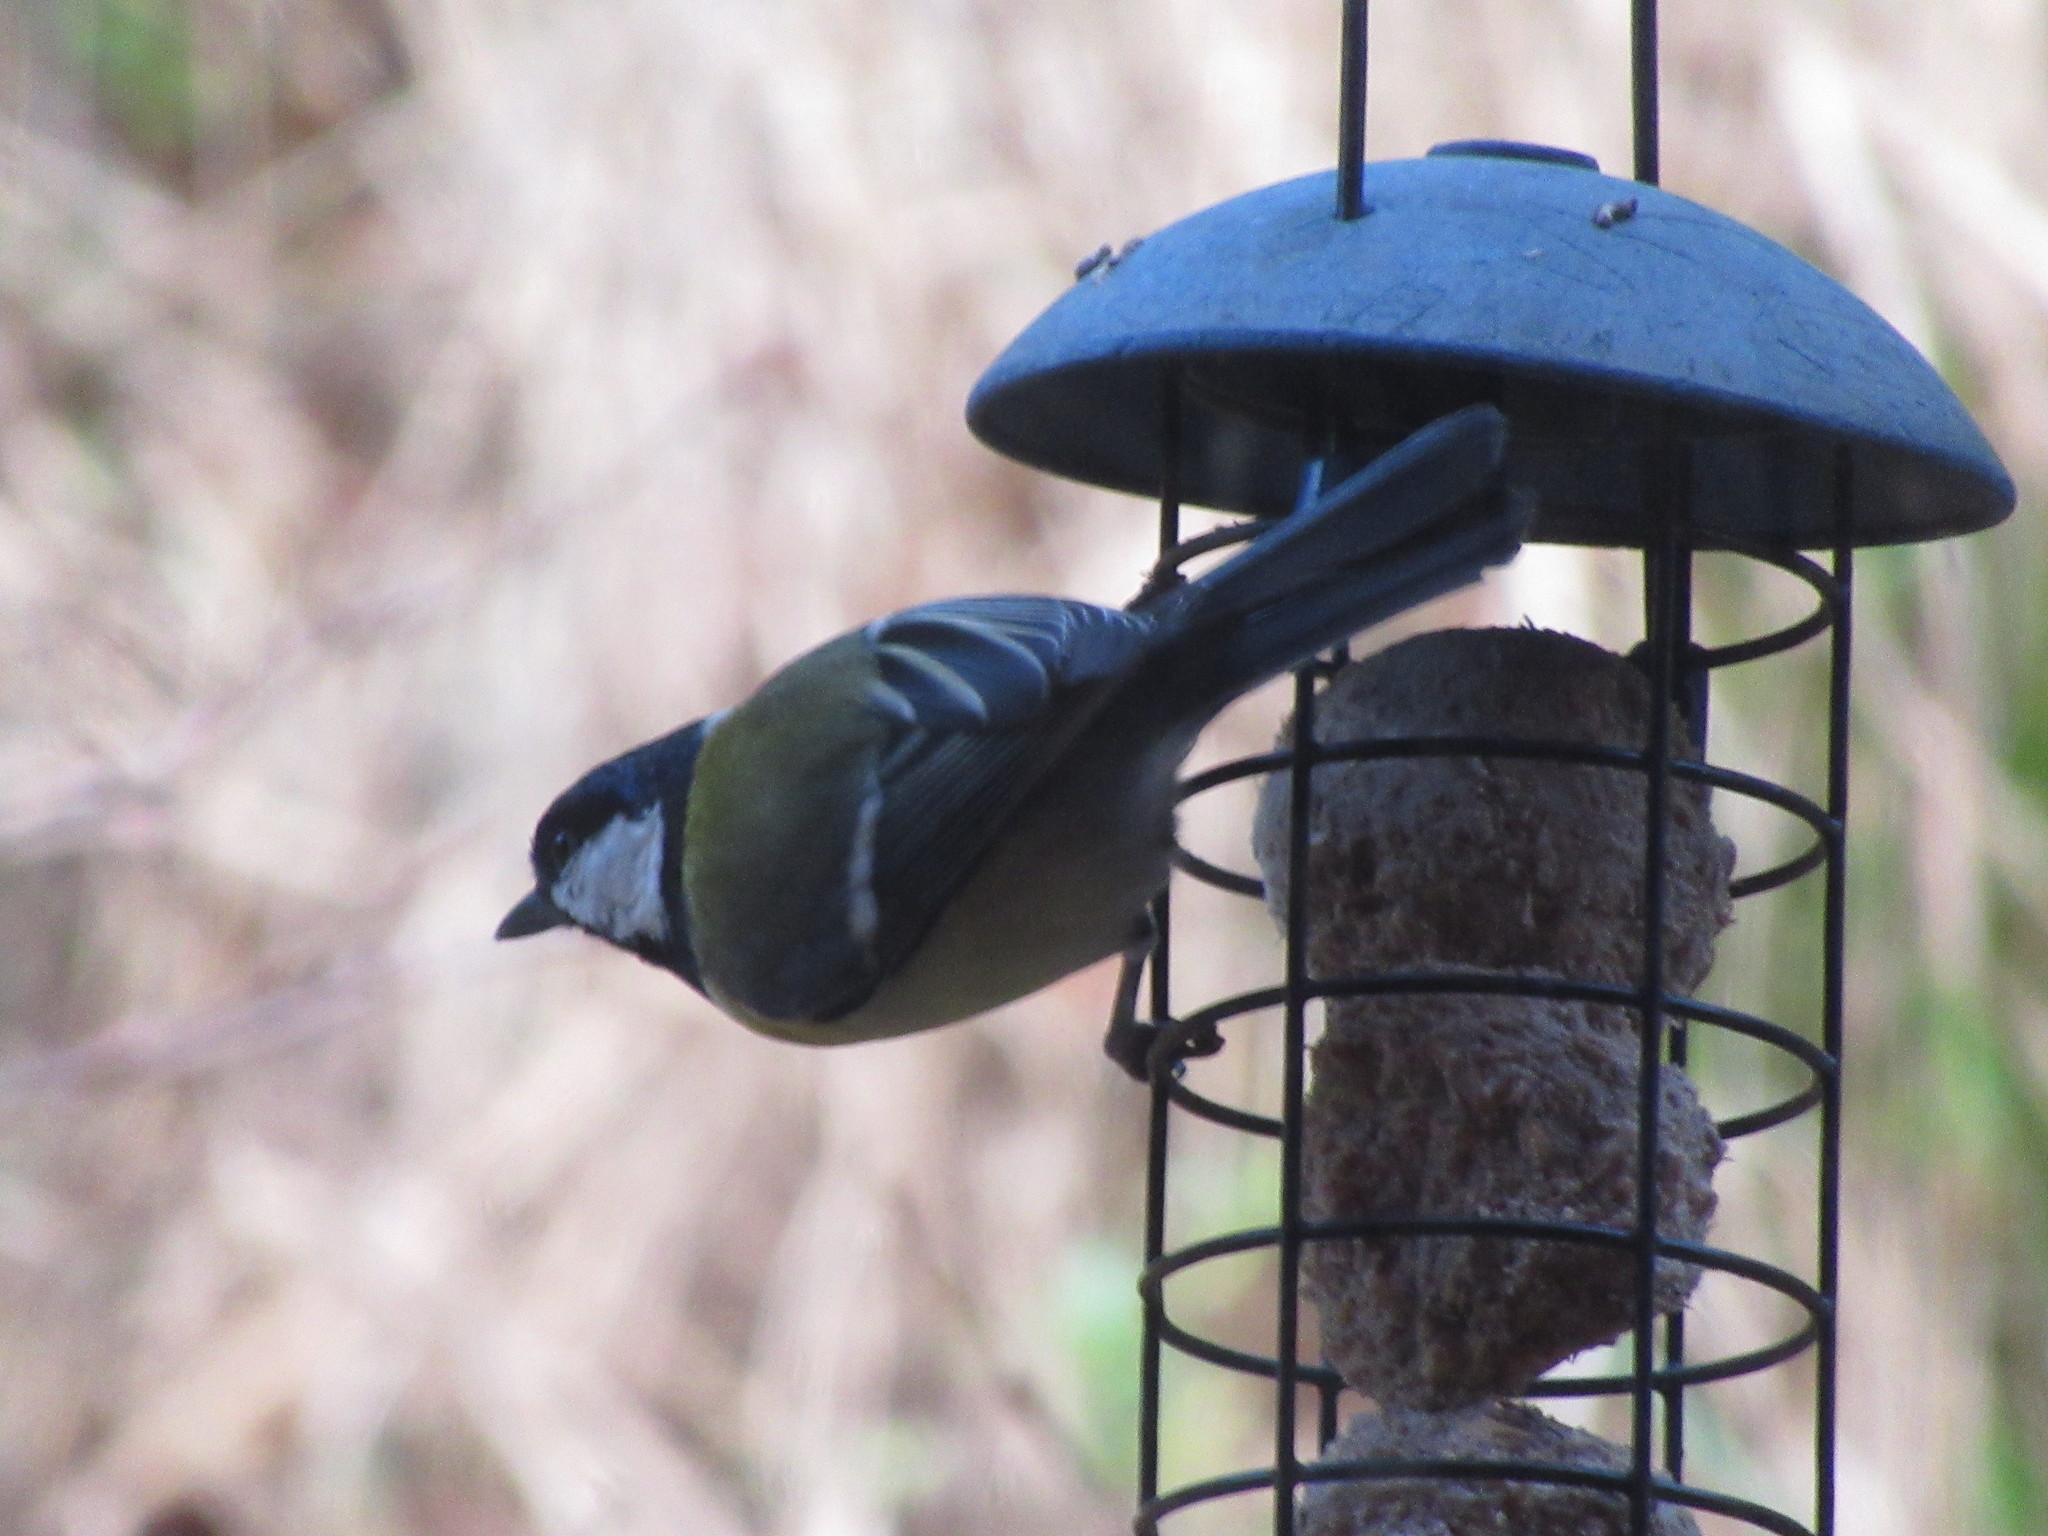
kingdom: Animalia
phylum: Chordata
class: Aves
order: Passeriformes
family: Paridae
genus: Parus
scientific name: Parus major
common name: Great tit
